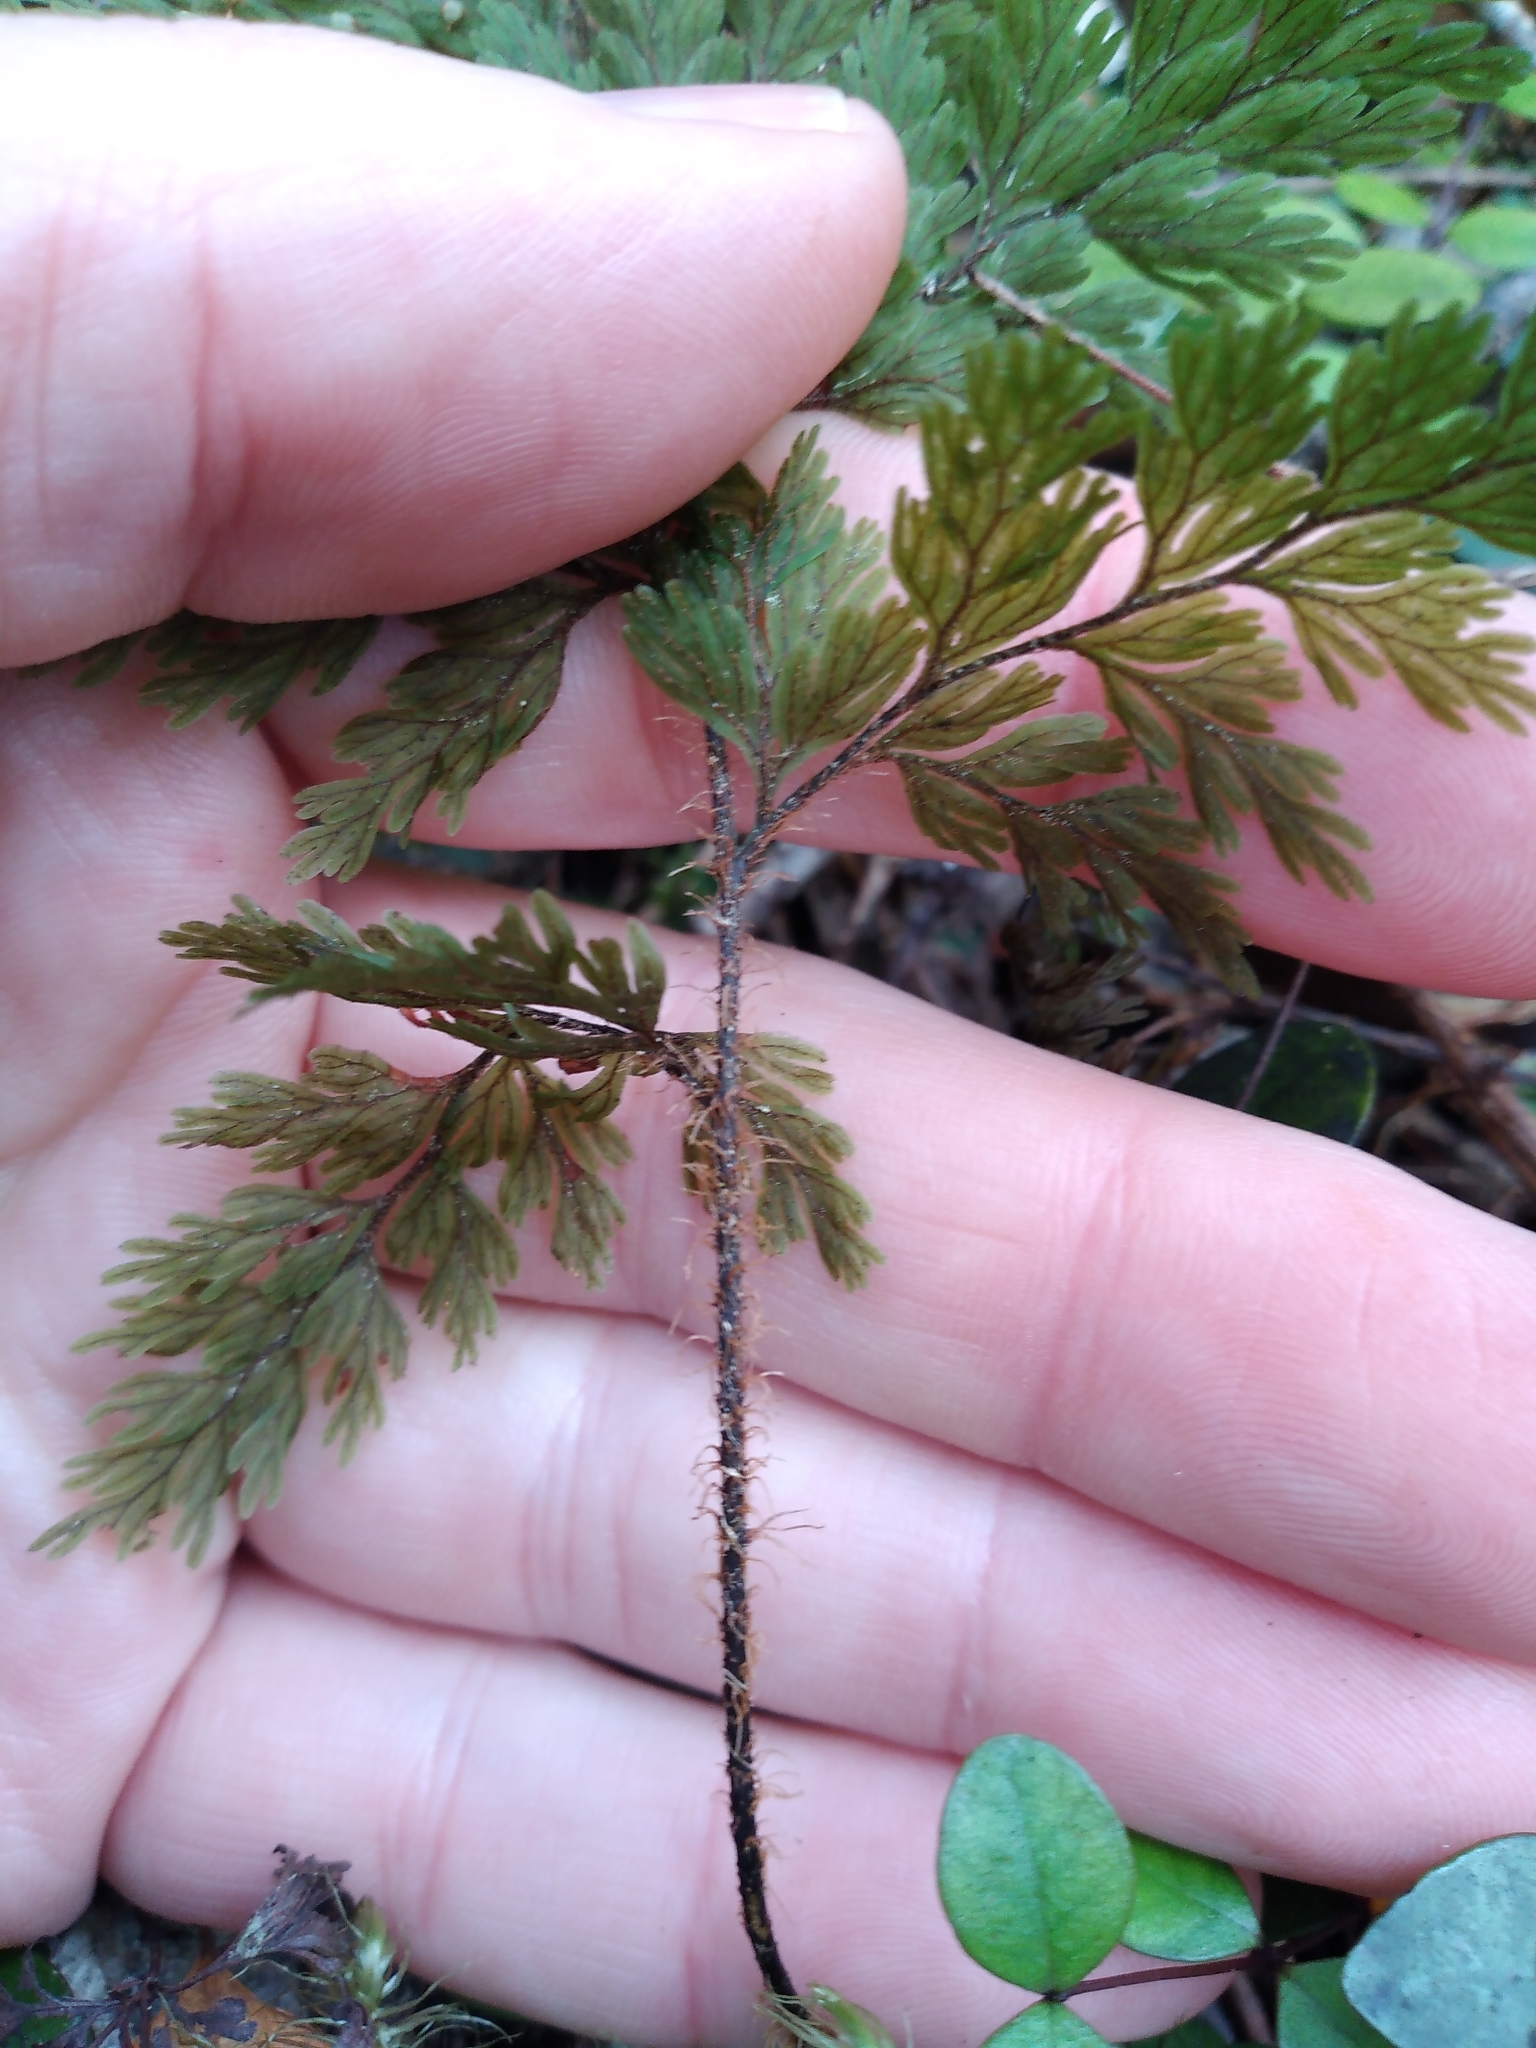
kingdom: Plantae
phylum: Tracheophyta
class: Polypodiopsida
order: Hymenophyllales
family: Hymenophyllaceae
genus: Hymenophyllum
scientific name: Hymenophyllum scabrum
